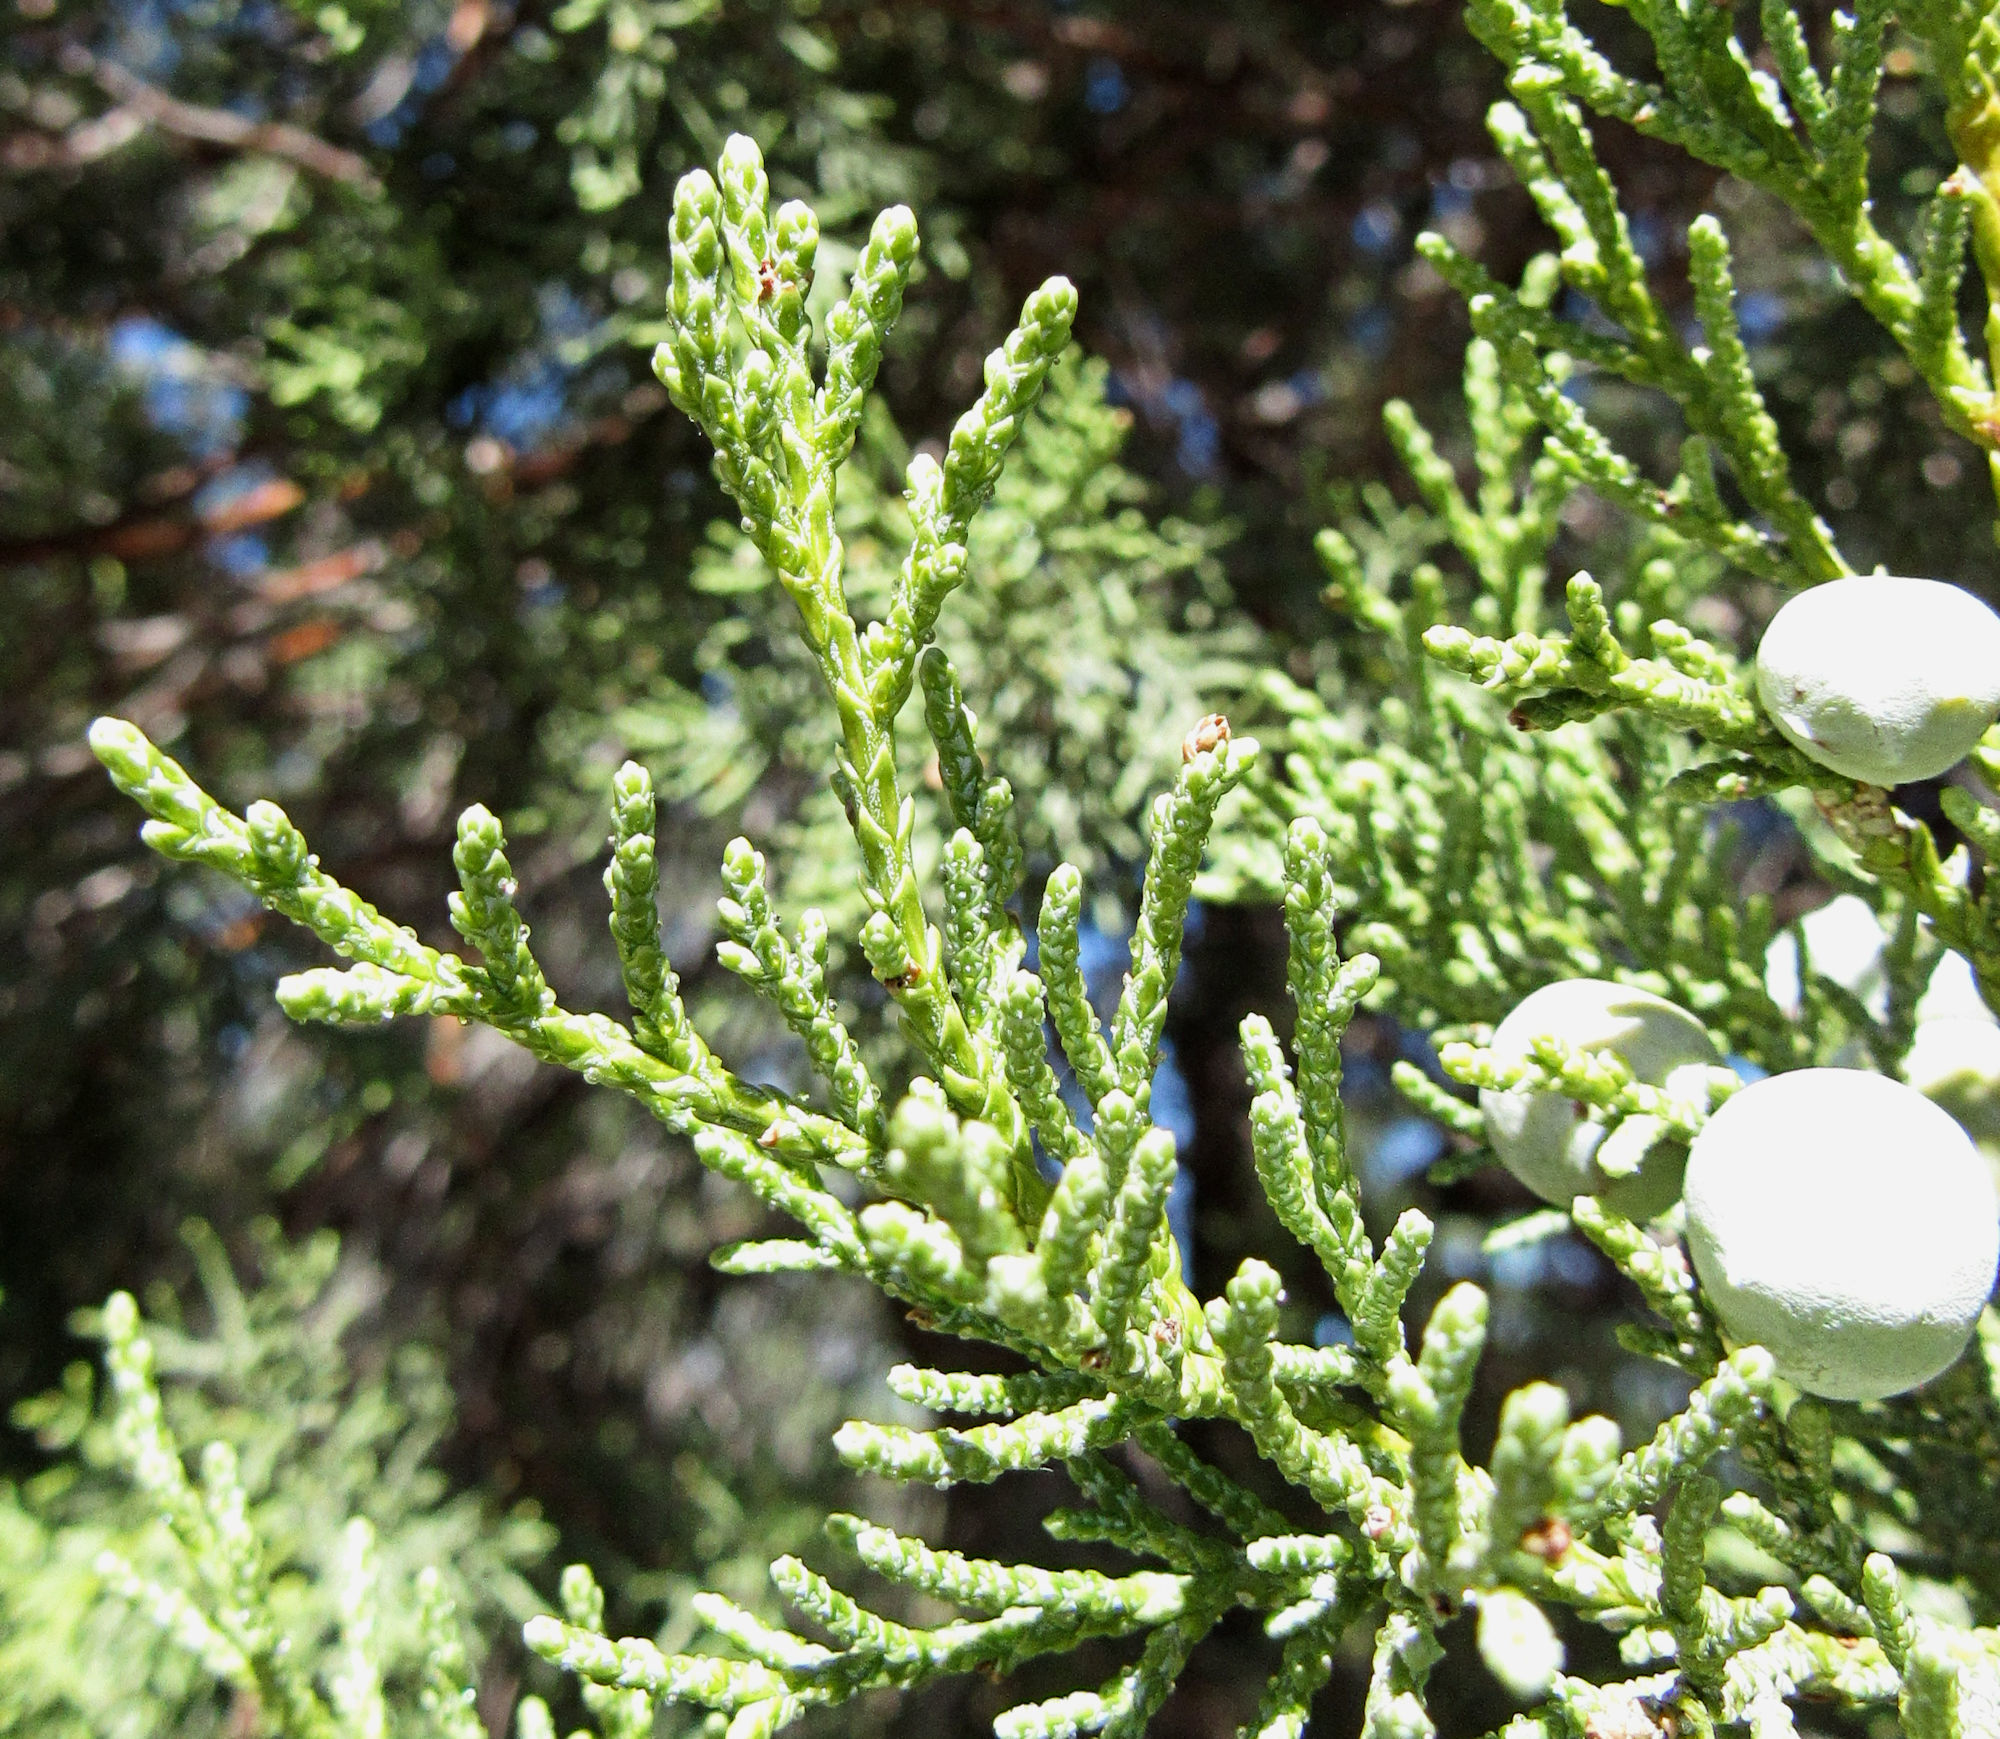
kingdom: Plantae
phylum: Tracheophyta
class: Pinopsida
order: Pinales
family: Cupressaceae
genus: Juniperus
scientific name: Juniperus deppeana
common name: Alligator juniper
